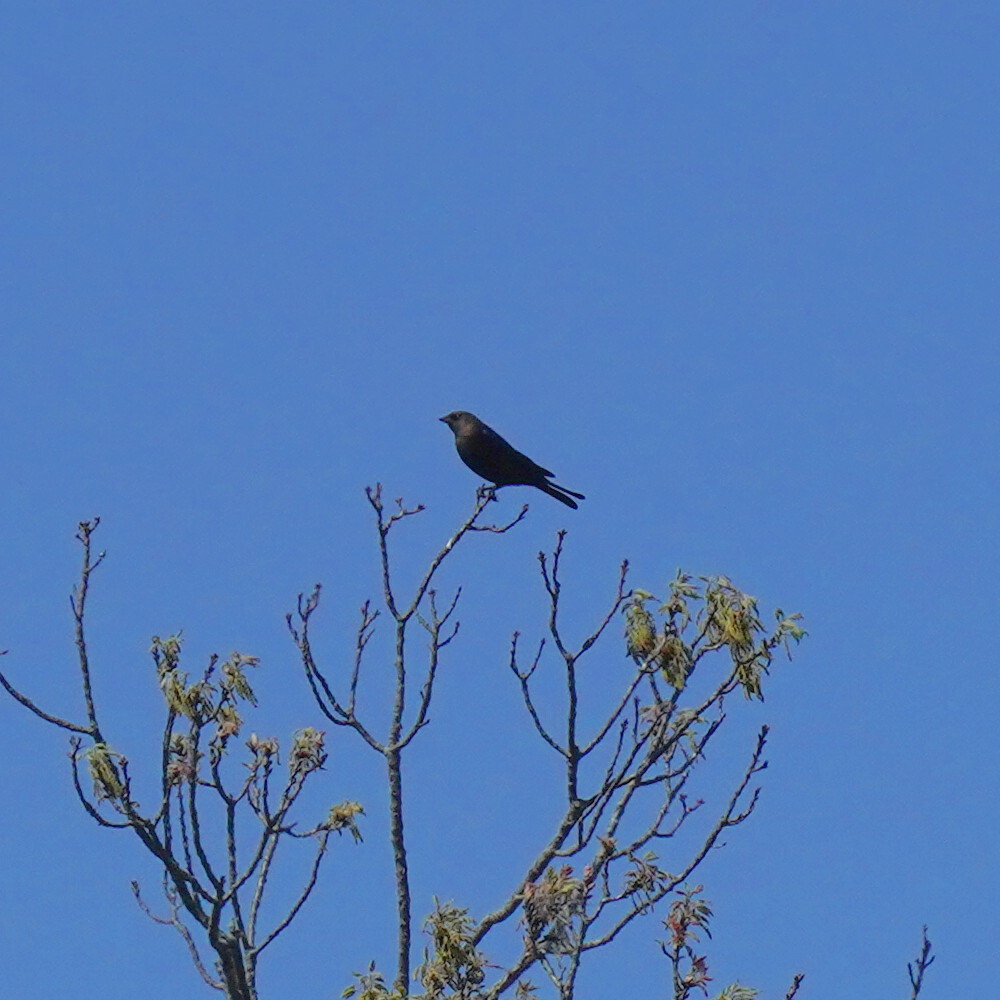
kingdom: Animalia
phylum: Chordata
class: Aves
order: Passeriformes
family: Icteridae
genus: Molothrus
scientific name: Molothrus ater
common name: Brown-headed cowbird
